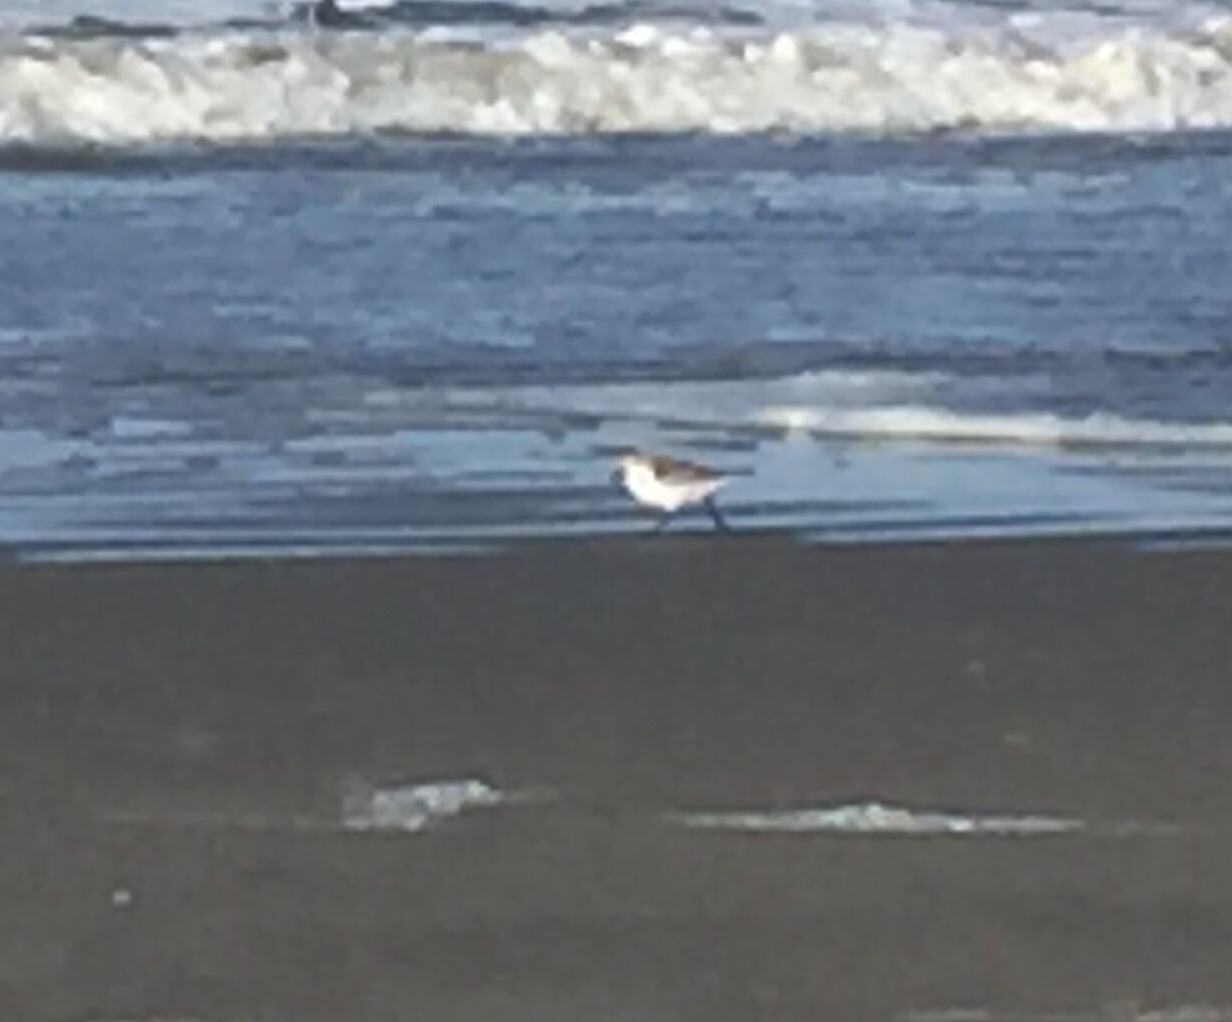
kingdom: Animalia
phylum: Chordata
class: Aves
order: Charadriiformes
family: Scolopacidae
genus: Calidris
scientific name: Calidris alba
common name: Sanderling
